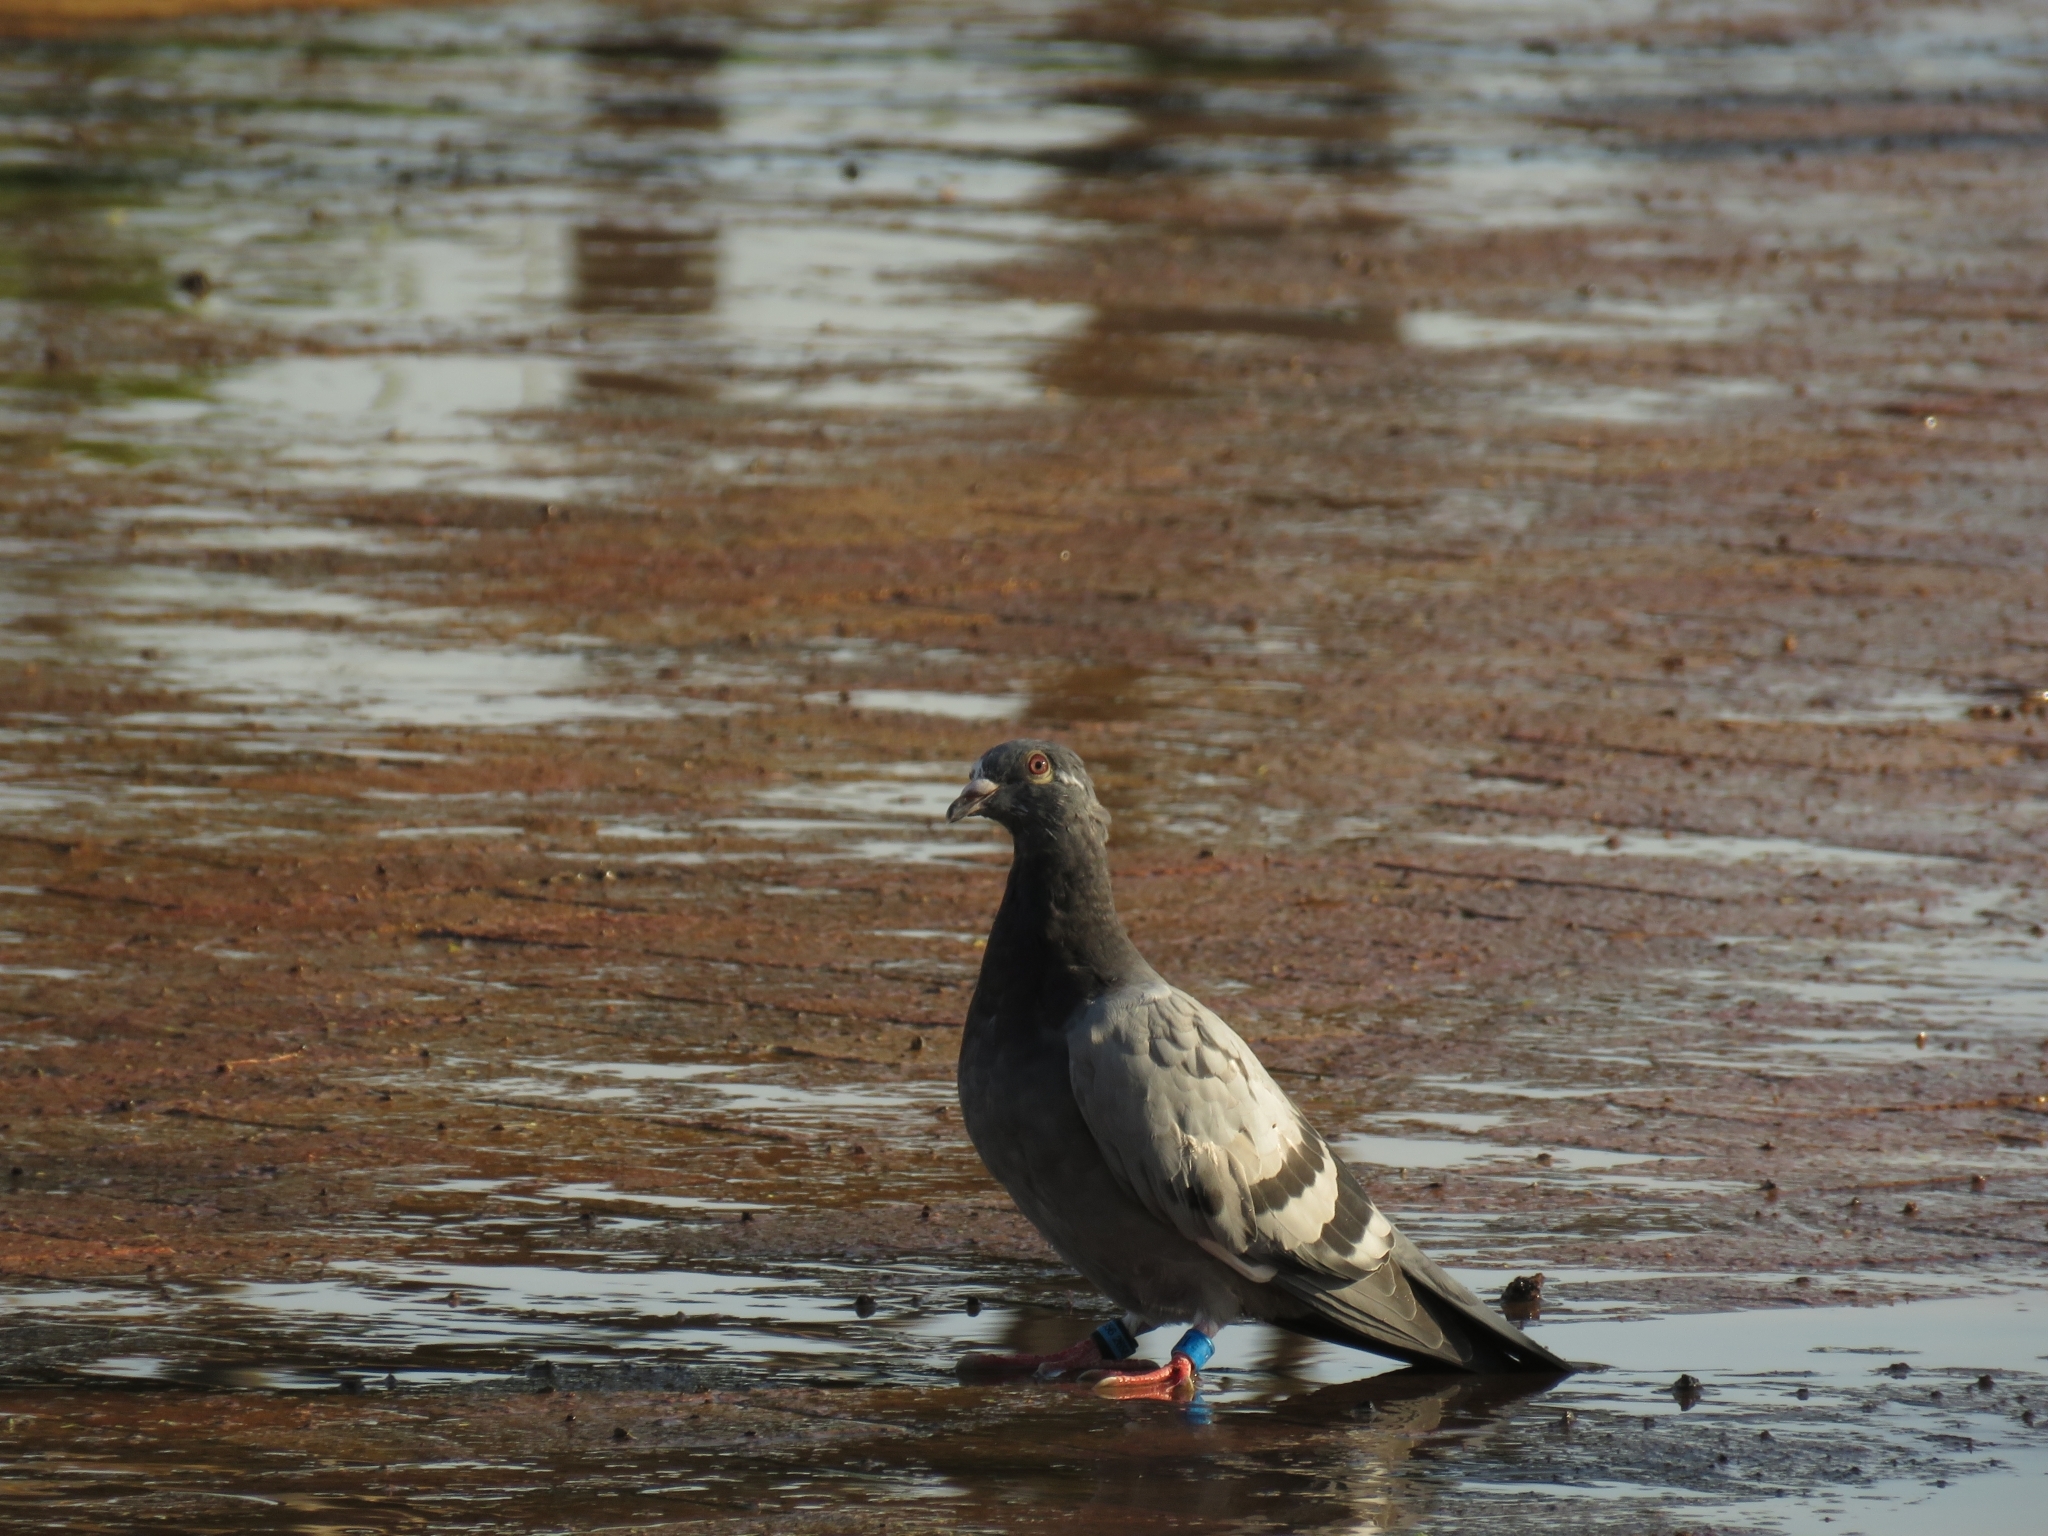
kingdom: Animalia
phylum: Chordata
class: Aves
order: Columbiformes
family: Columbidae
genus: Columba
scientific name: Columba livia
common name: Rock pigeon
